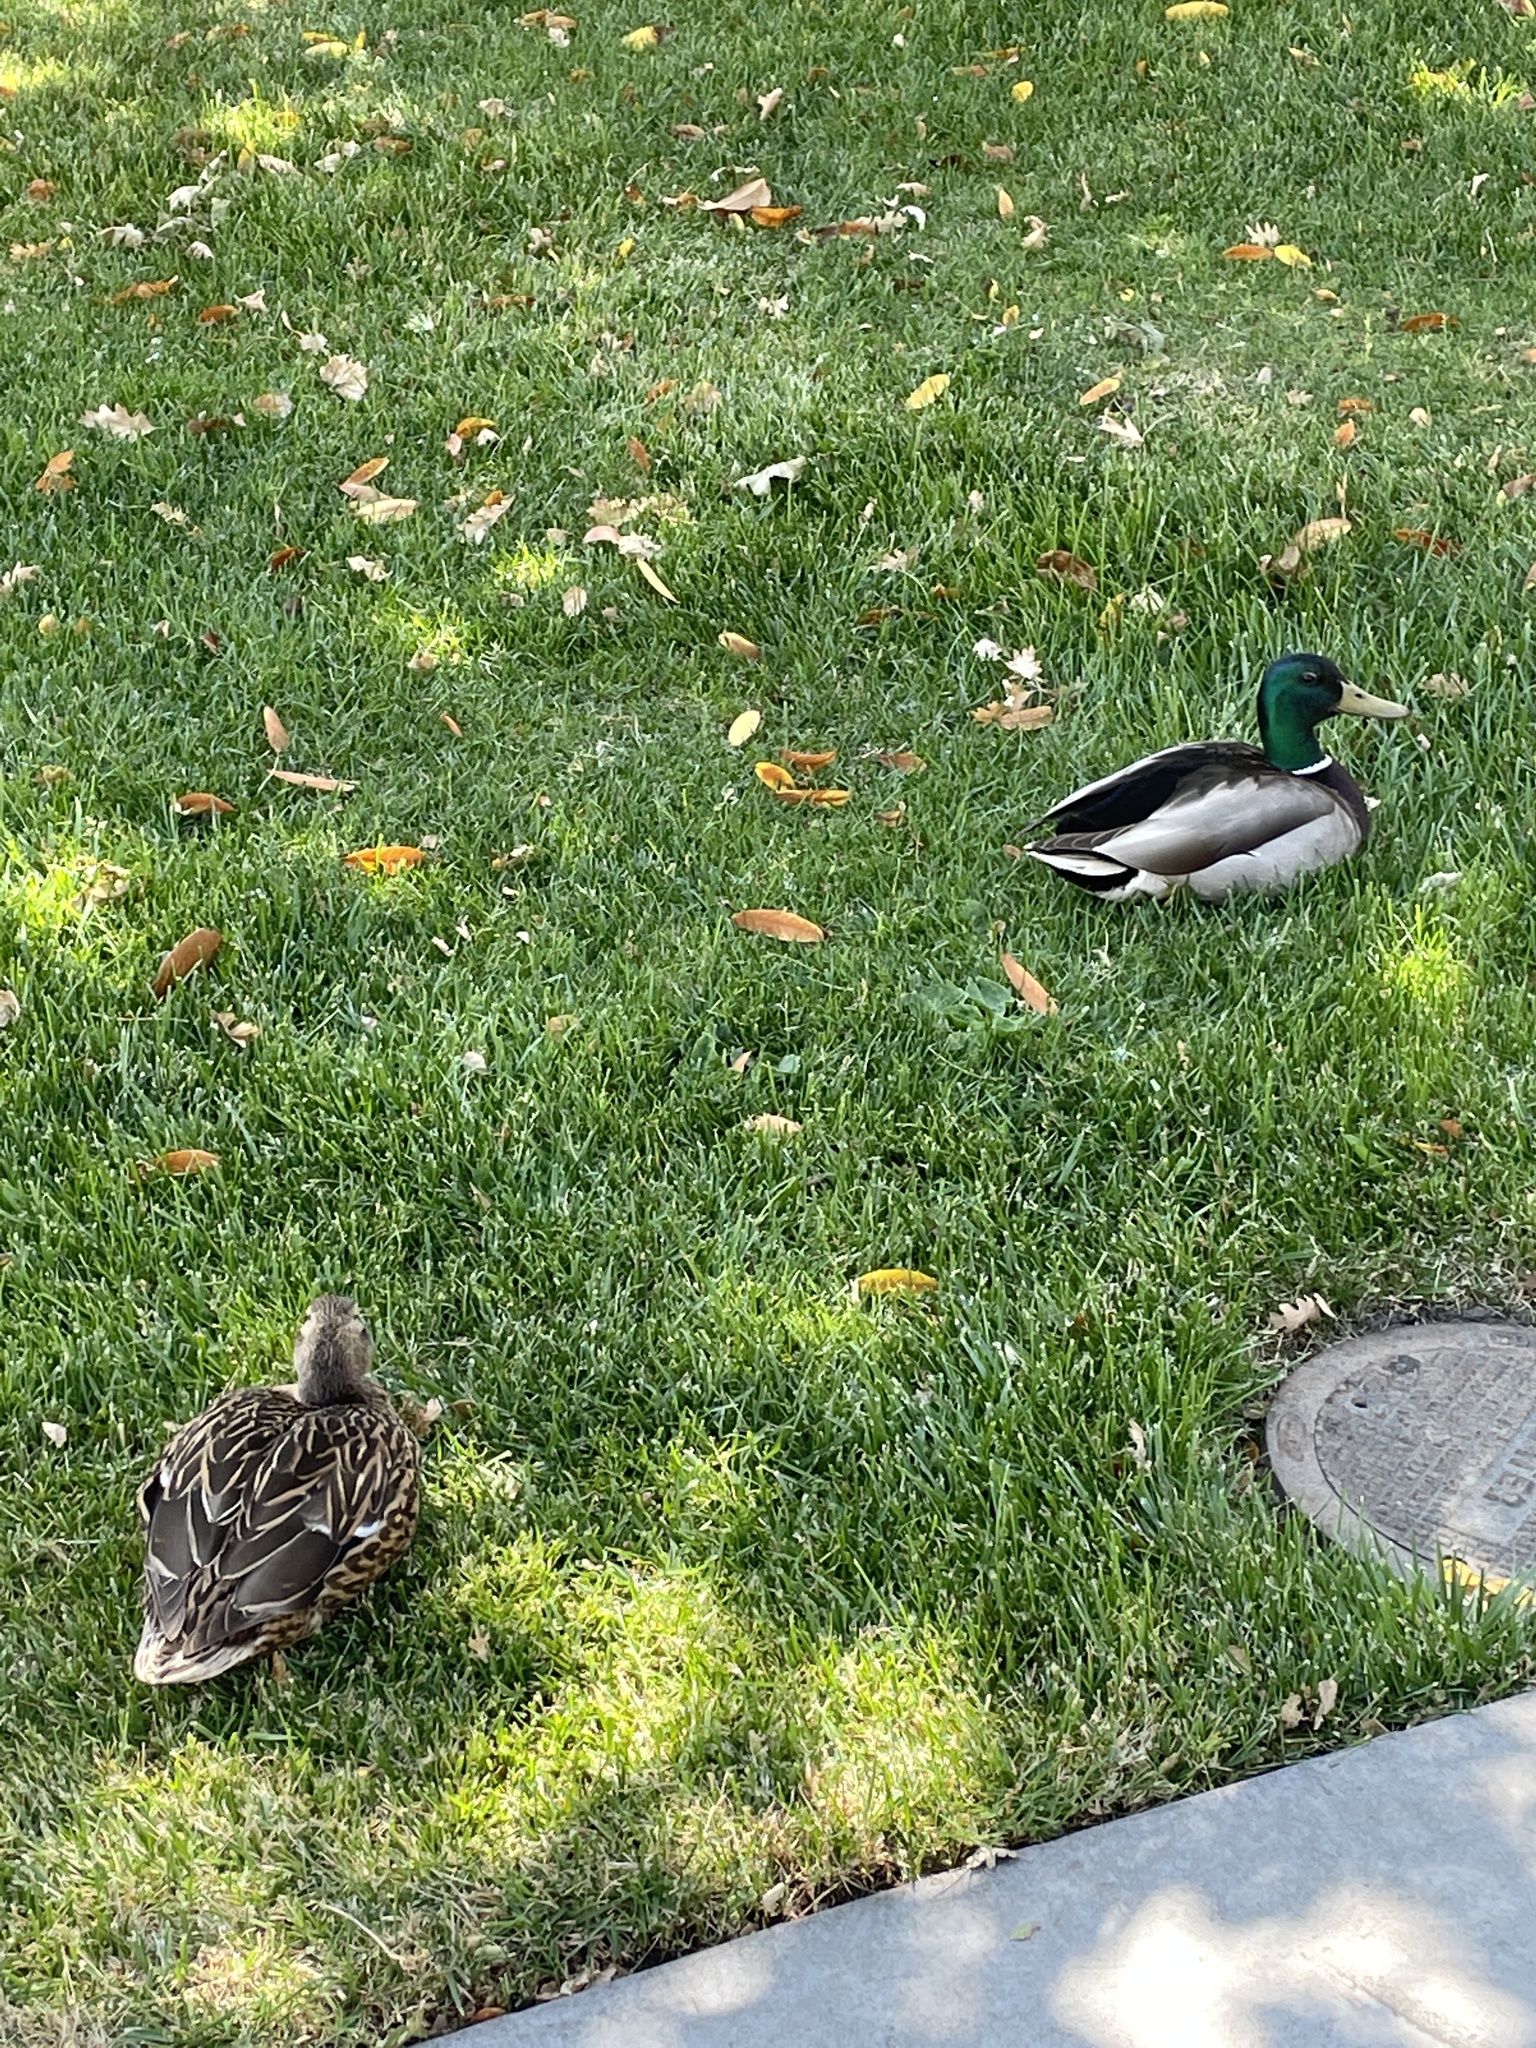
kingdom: Animalia
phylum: Chordata
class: Aves
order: Anseriformes
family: Anatidae
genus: Anas
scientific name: Anas platyrhynchos
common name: Mallard
